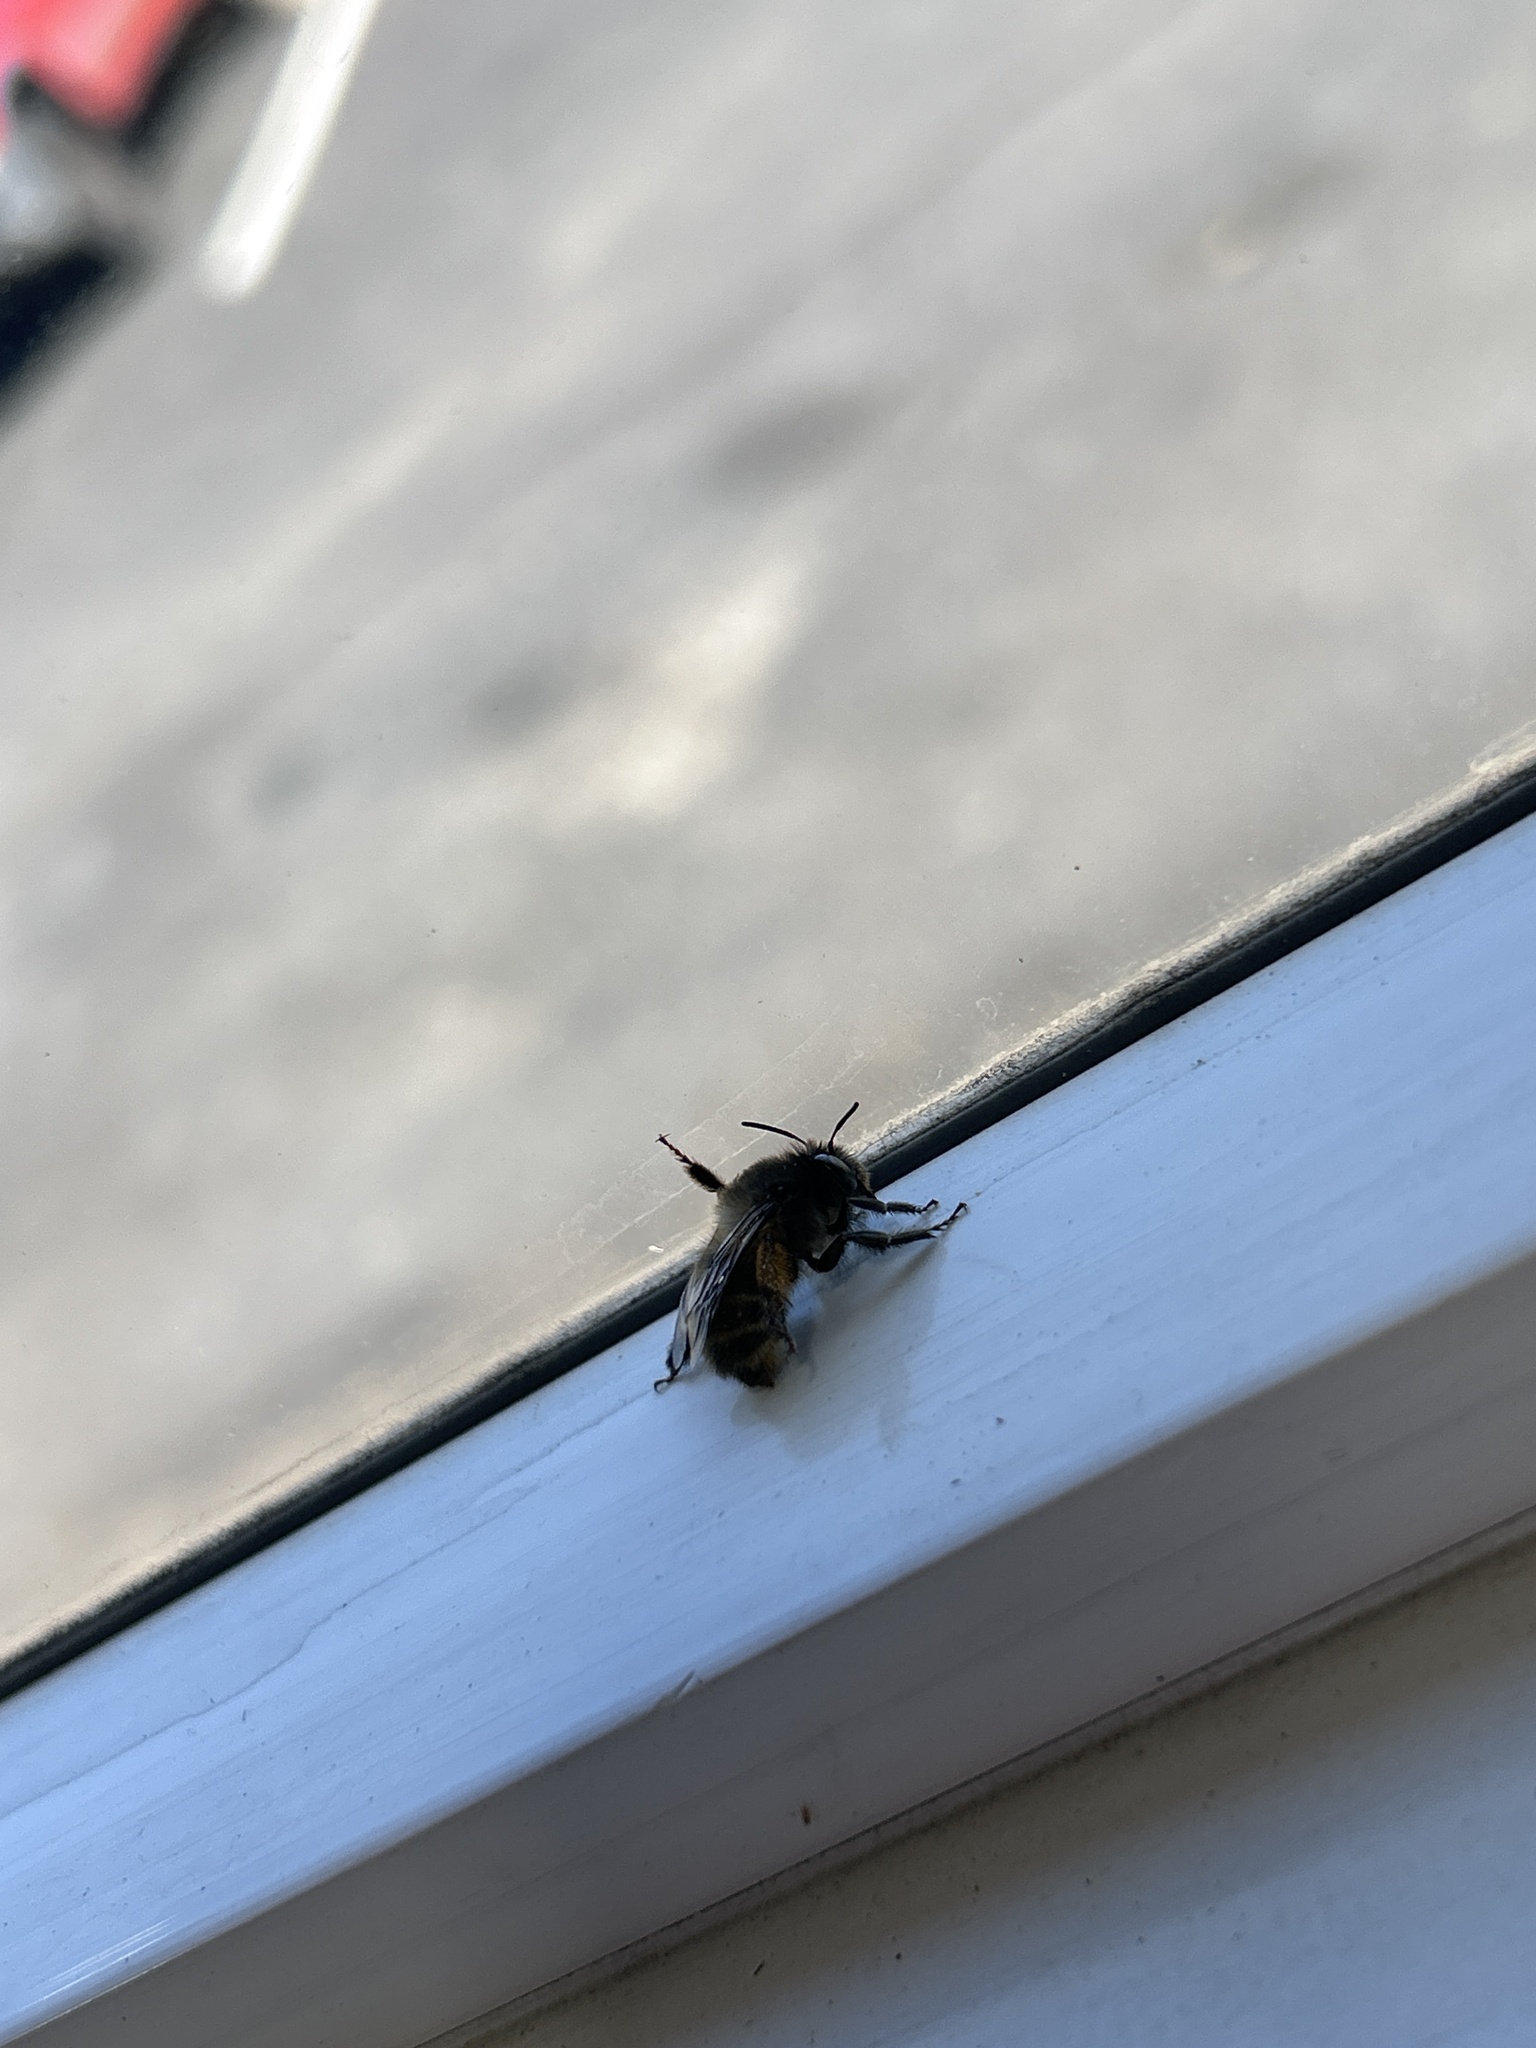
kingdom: Animalia
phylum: Arthropoda
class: Insecta
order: Hymenoptera
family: Apidae
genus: Apis
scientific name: Apis mellifera
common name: Honey bee
